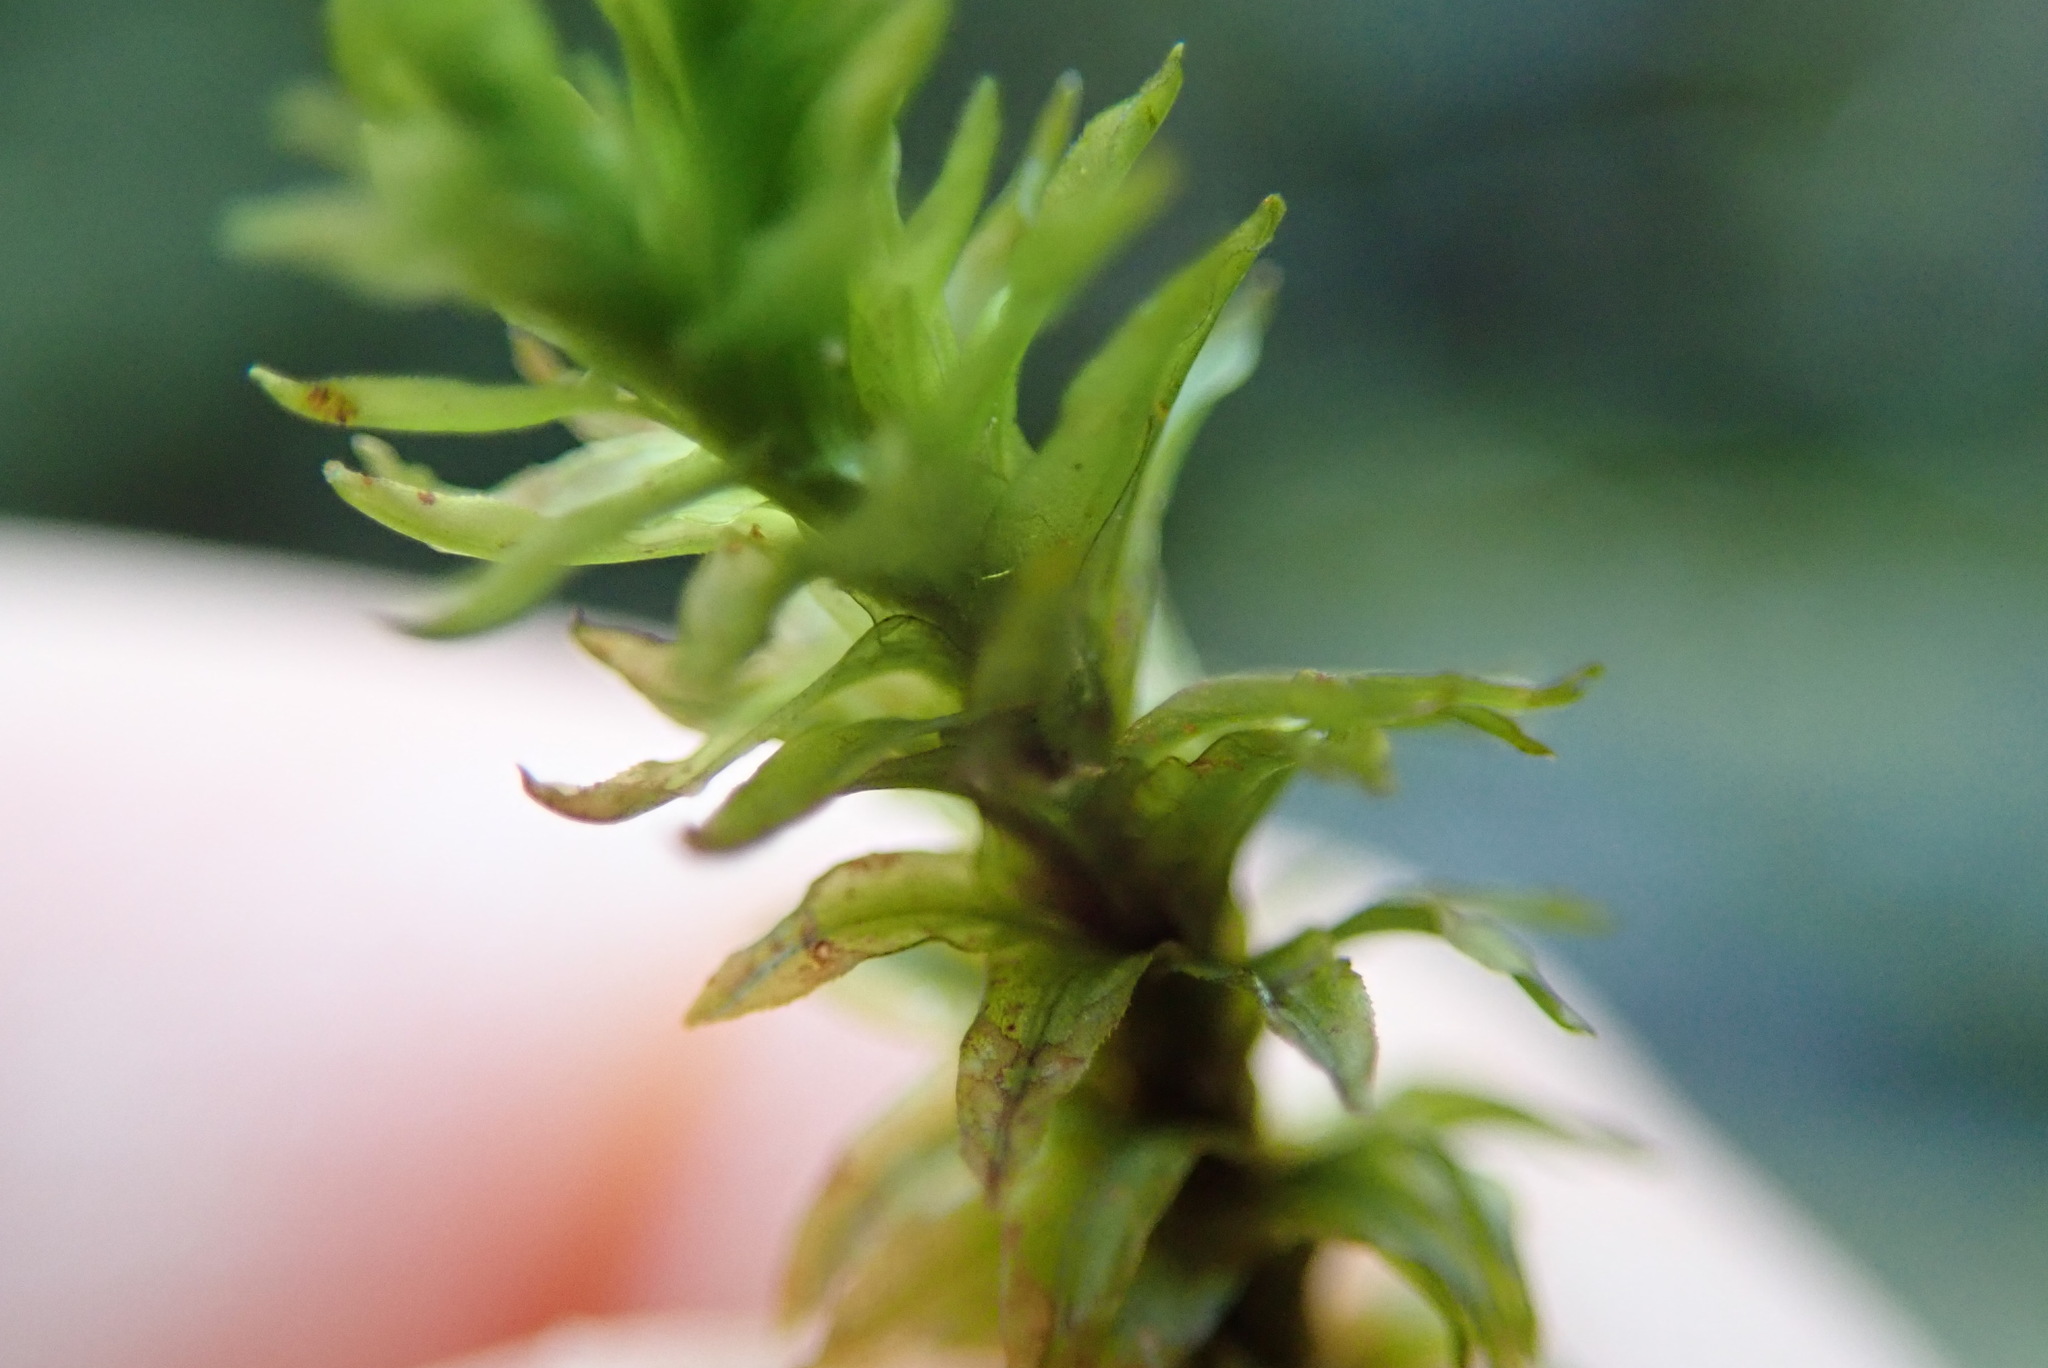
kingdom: Plantae
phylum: Bryophyta
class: Bryopsida
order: Scouleriales
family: Scouleriaceae
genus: Scouleria
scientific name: Scouleria aquatica
